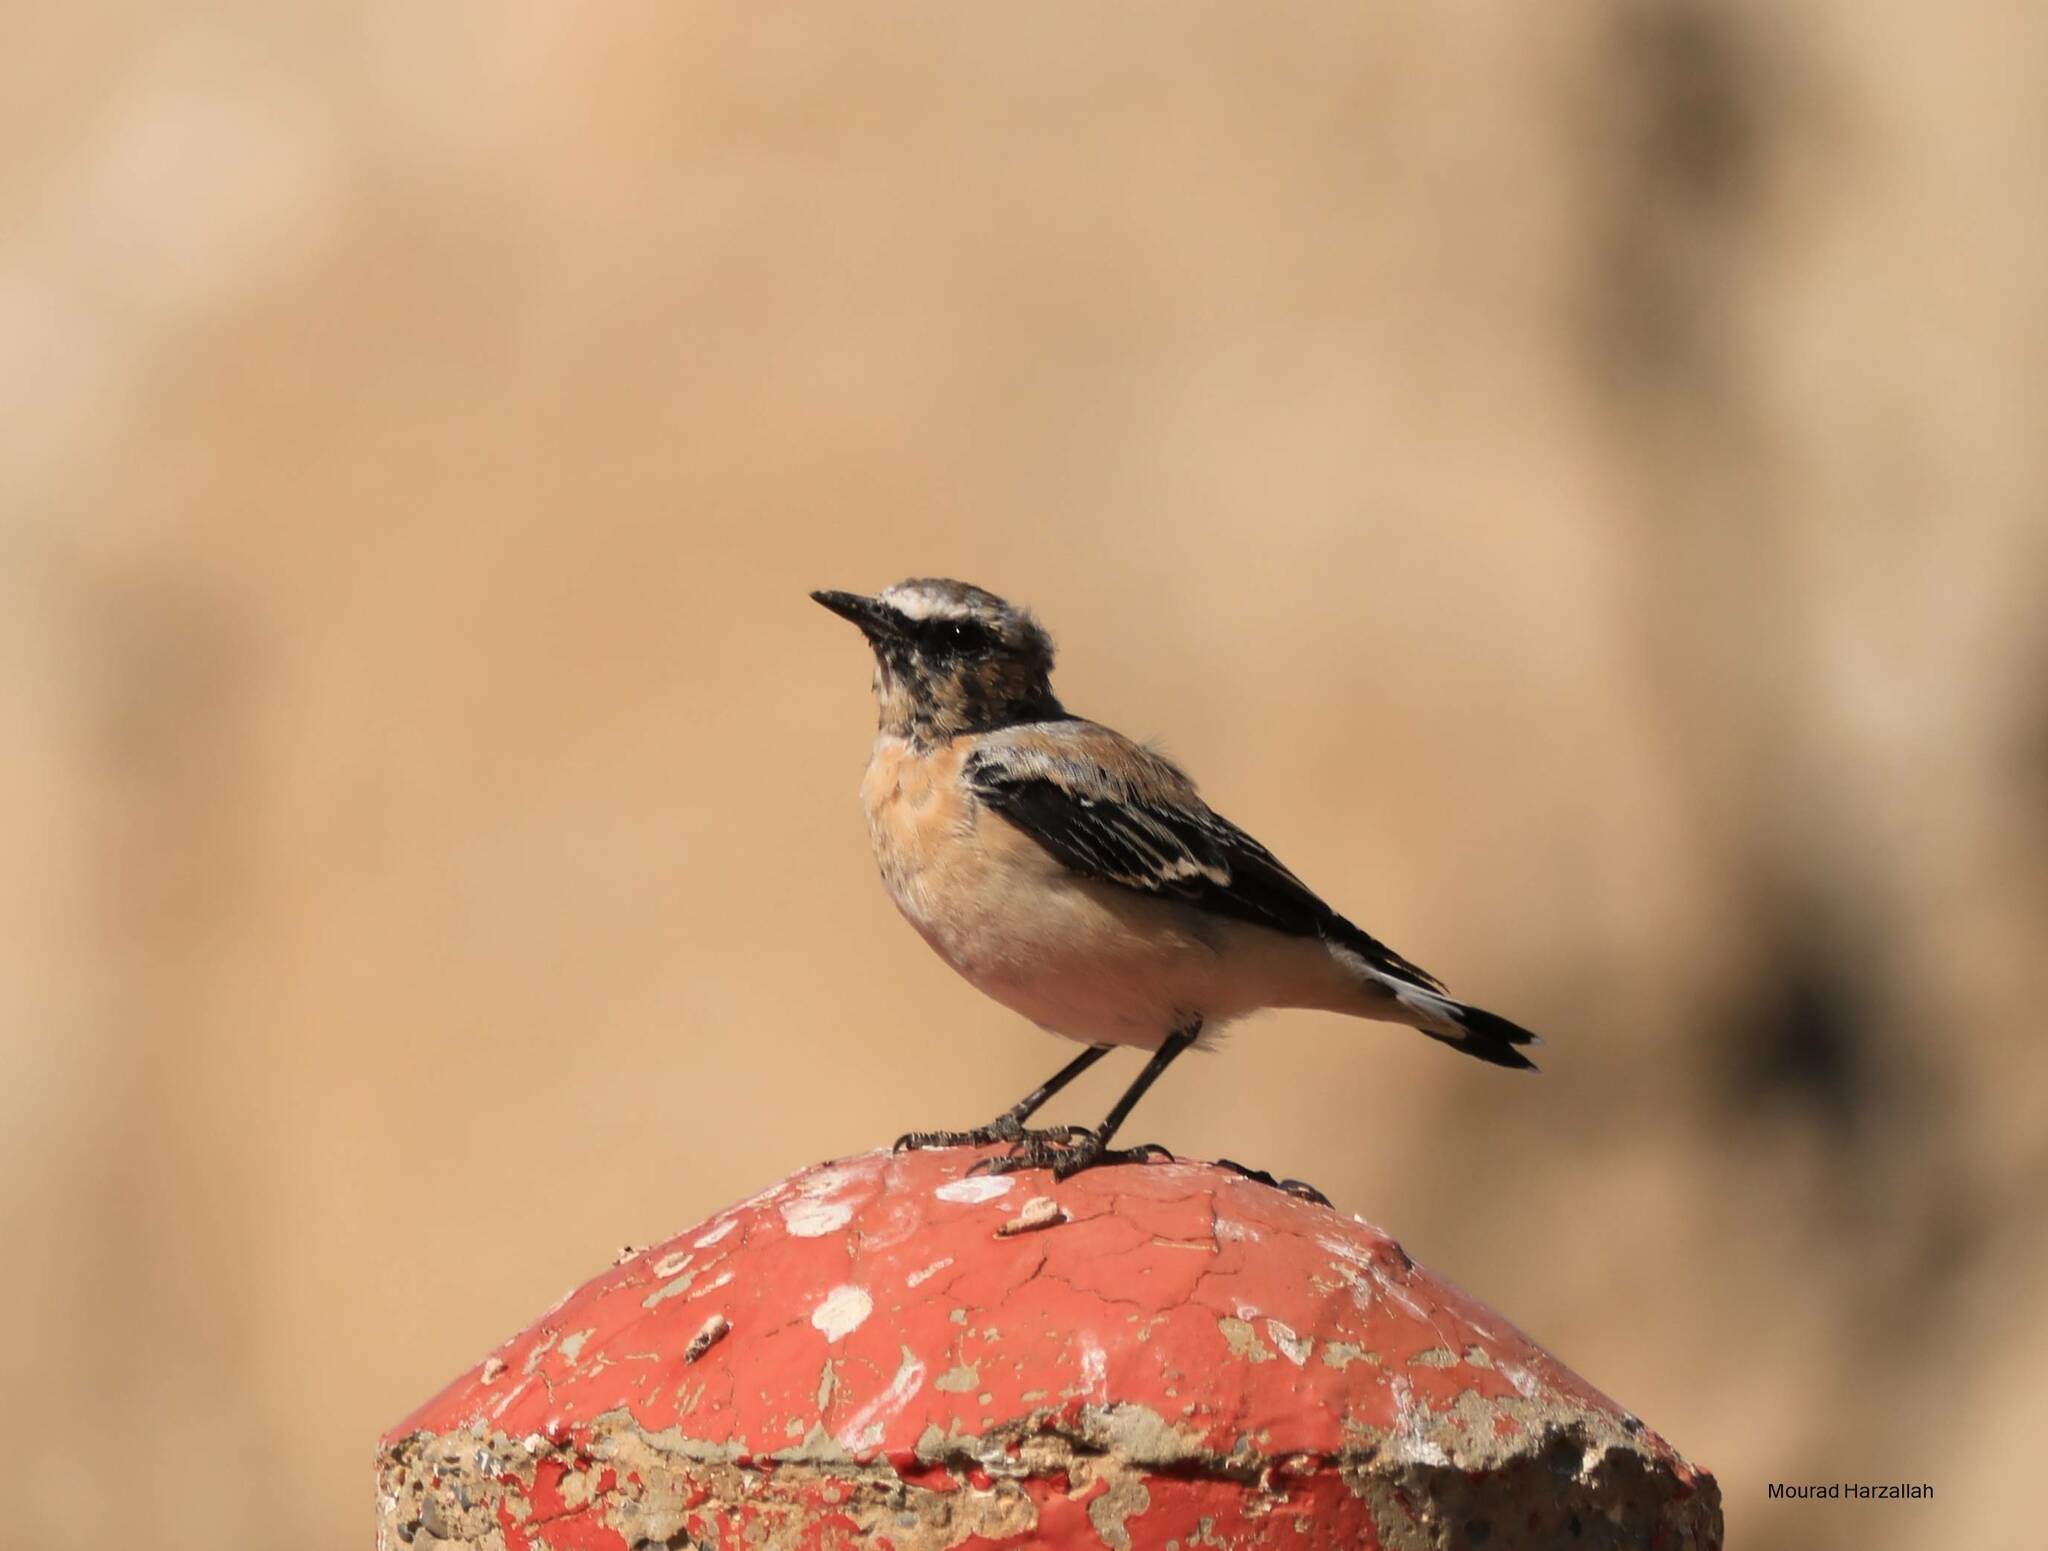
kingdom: Animalia
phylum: Chordata
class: Aves
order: Passeriformes
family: Muscicapidae
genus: Oenanthe
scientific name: Oenanthe oenanthe
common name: Northern wheatear
